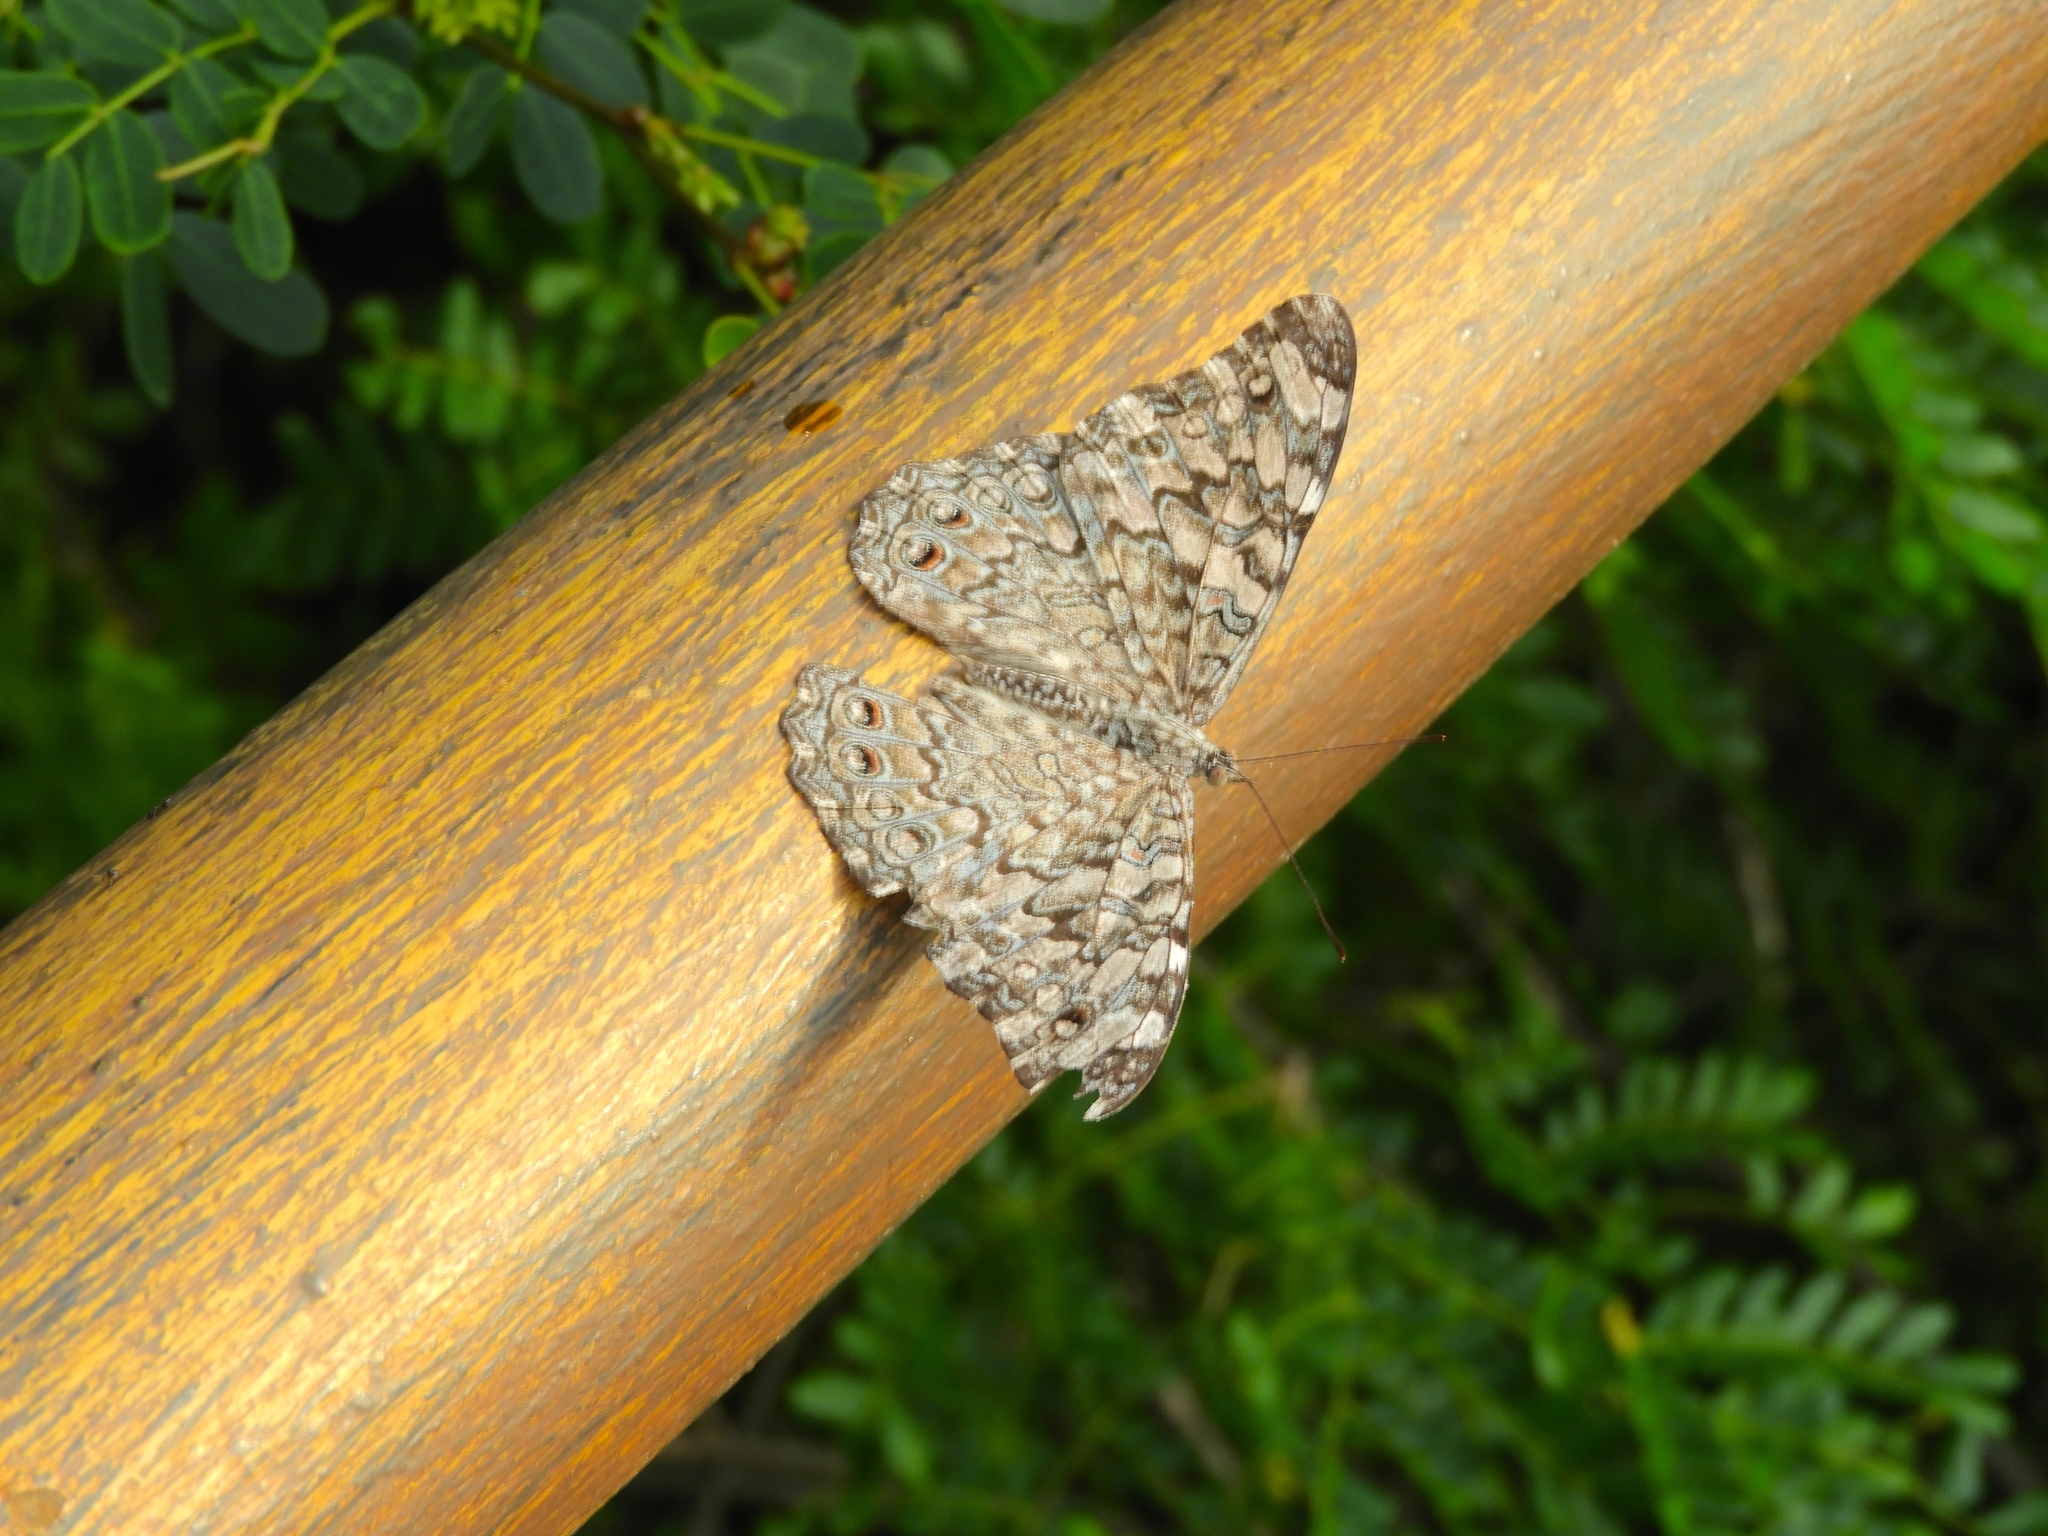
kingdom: Animalia
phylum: Arthropoda
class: Insecta
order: Lepidoptera
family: Nymphalidae
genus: Hamadryas
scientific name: Hamadryas februa
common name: Gray cracker
